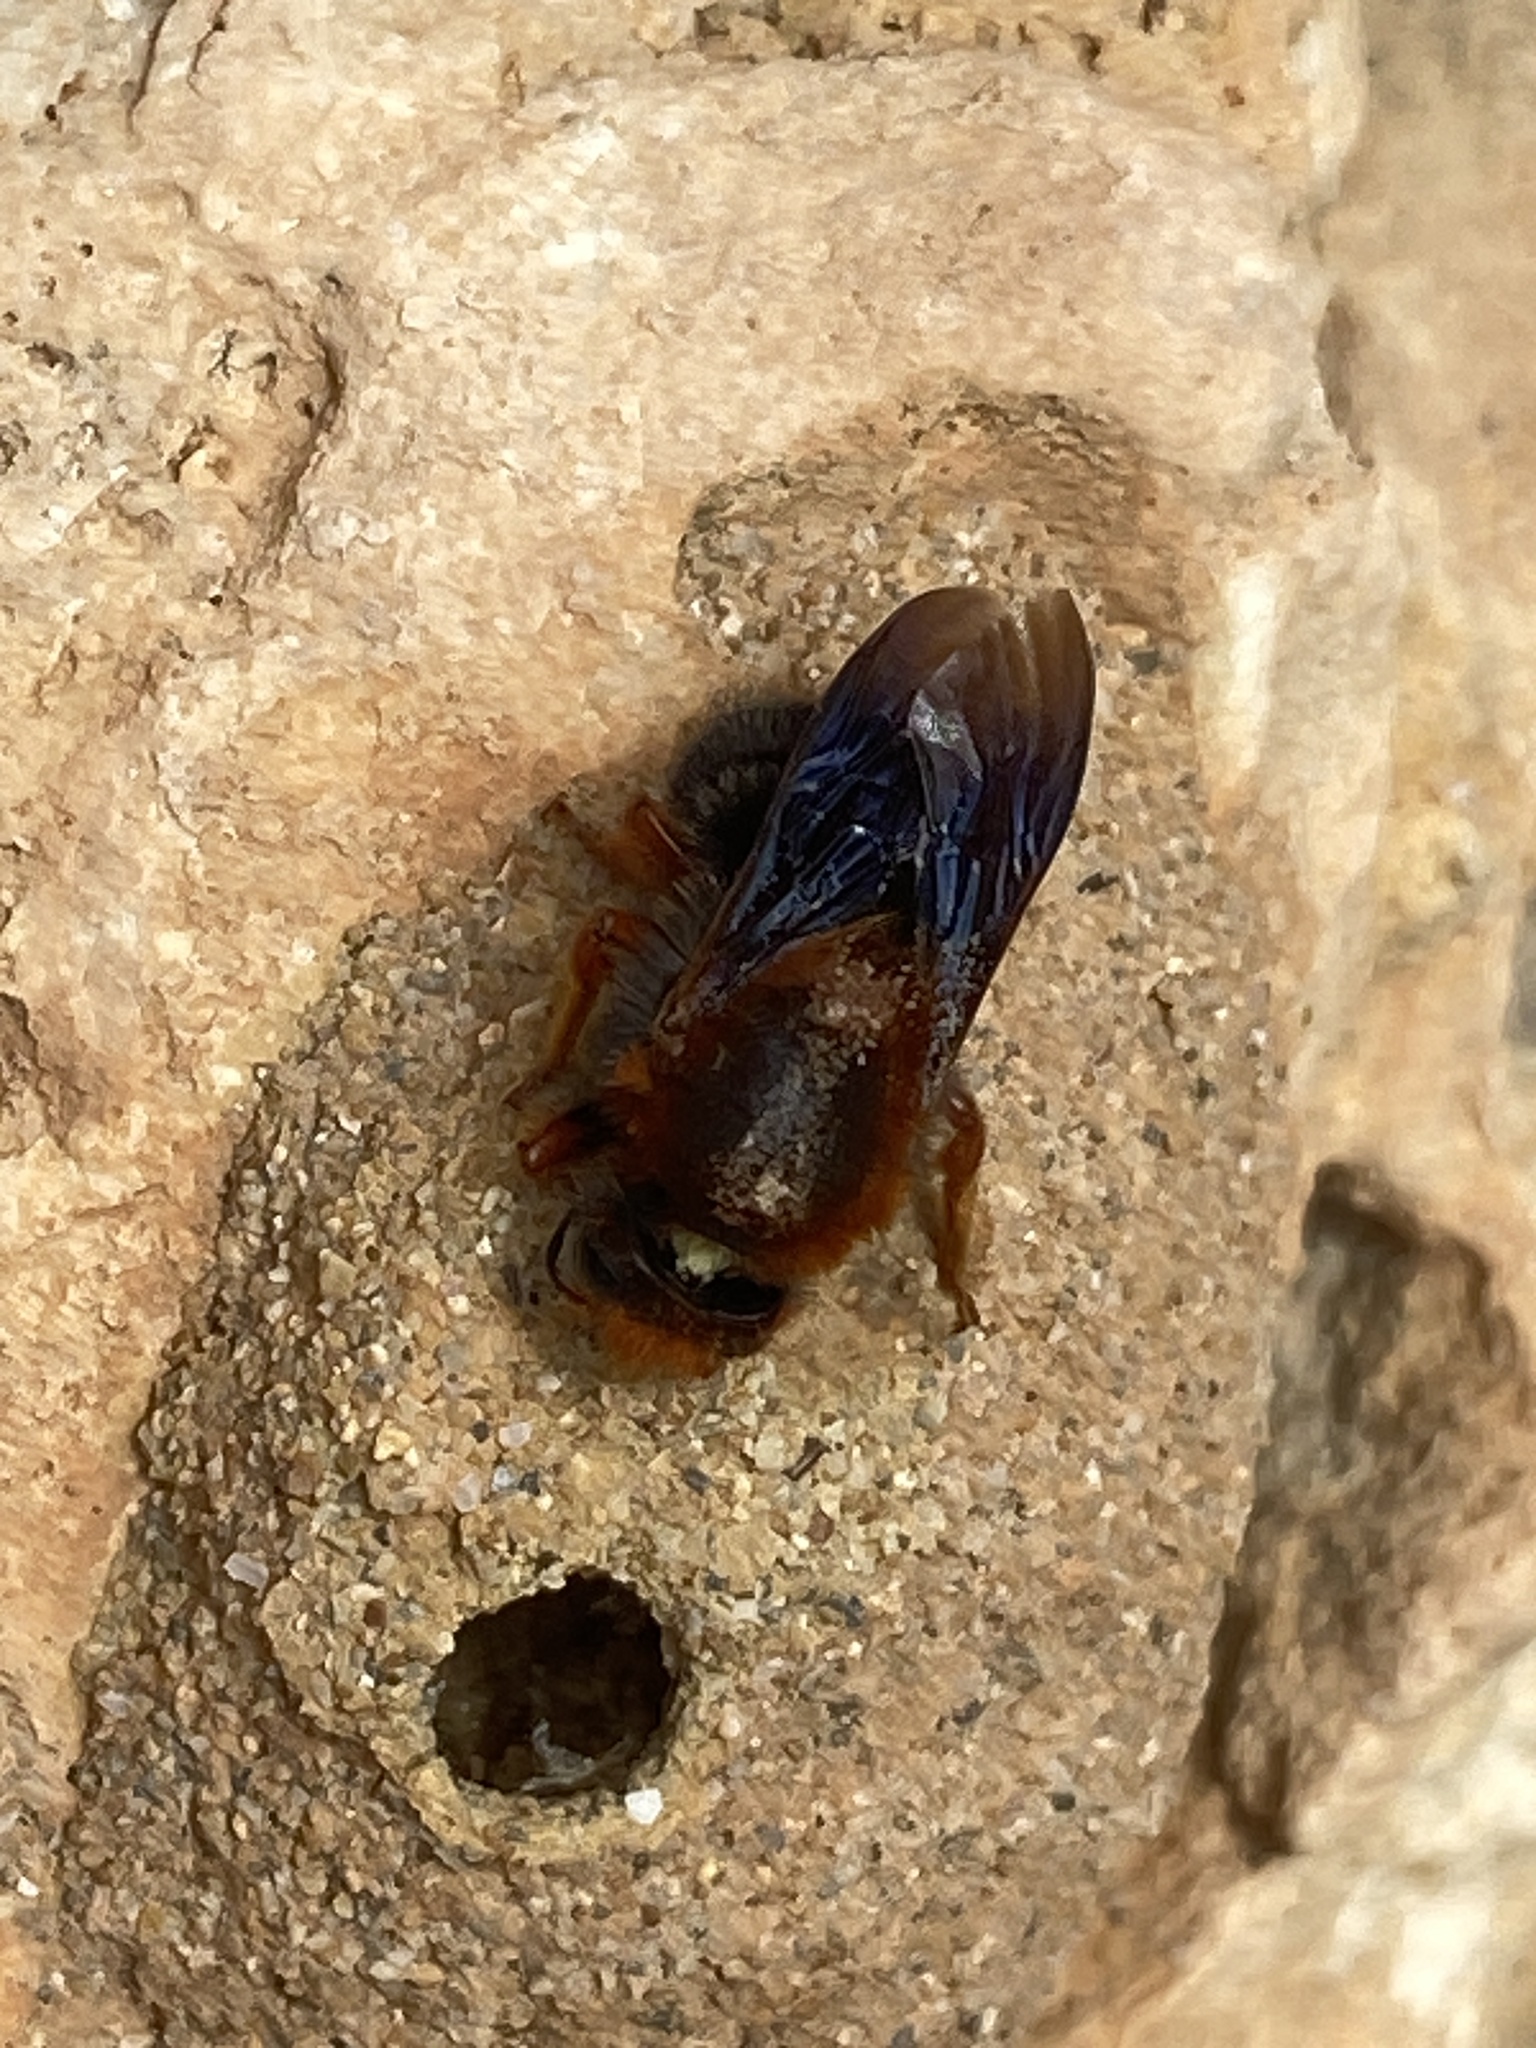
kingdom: Animalia
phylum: Arthropoda
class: Insecta
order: Hymenoptera
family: Megachilidae
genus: Megachile
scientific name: Megachile sicula
